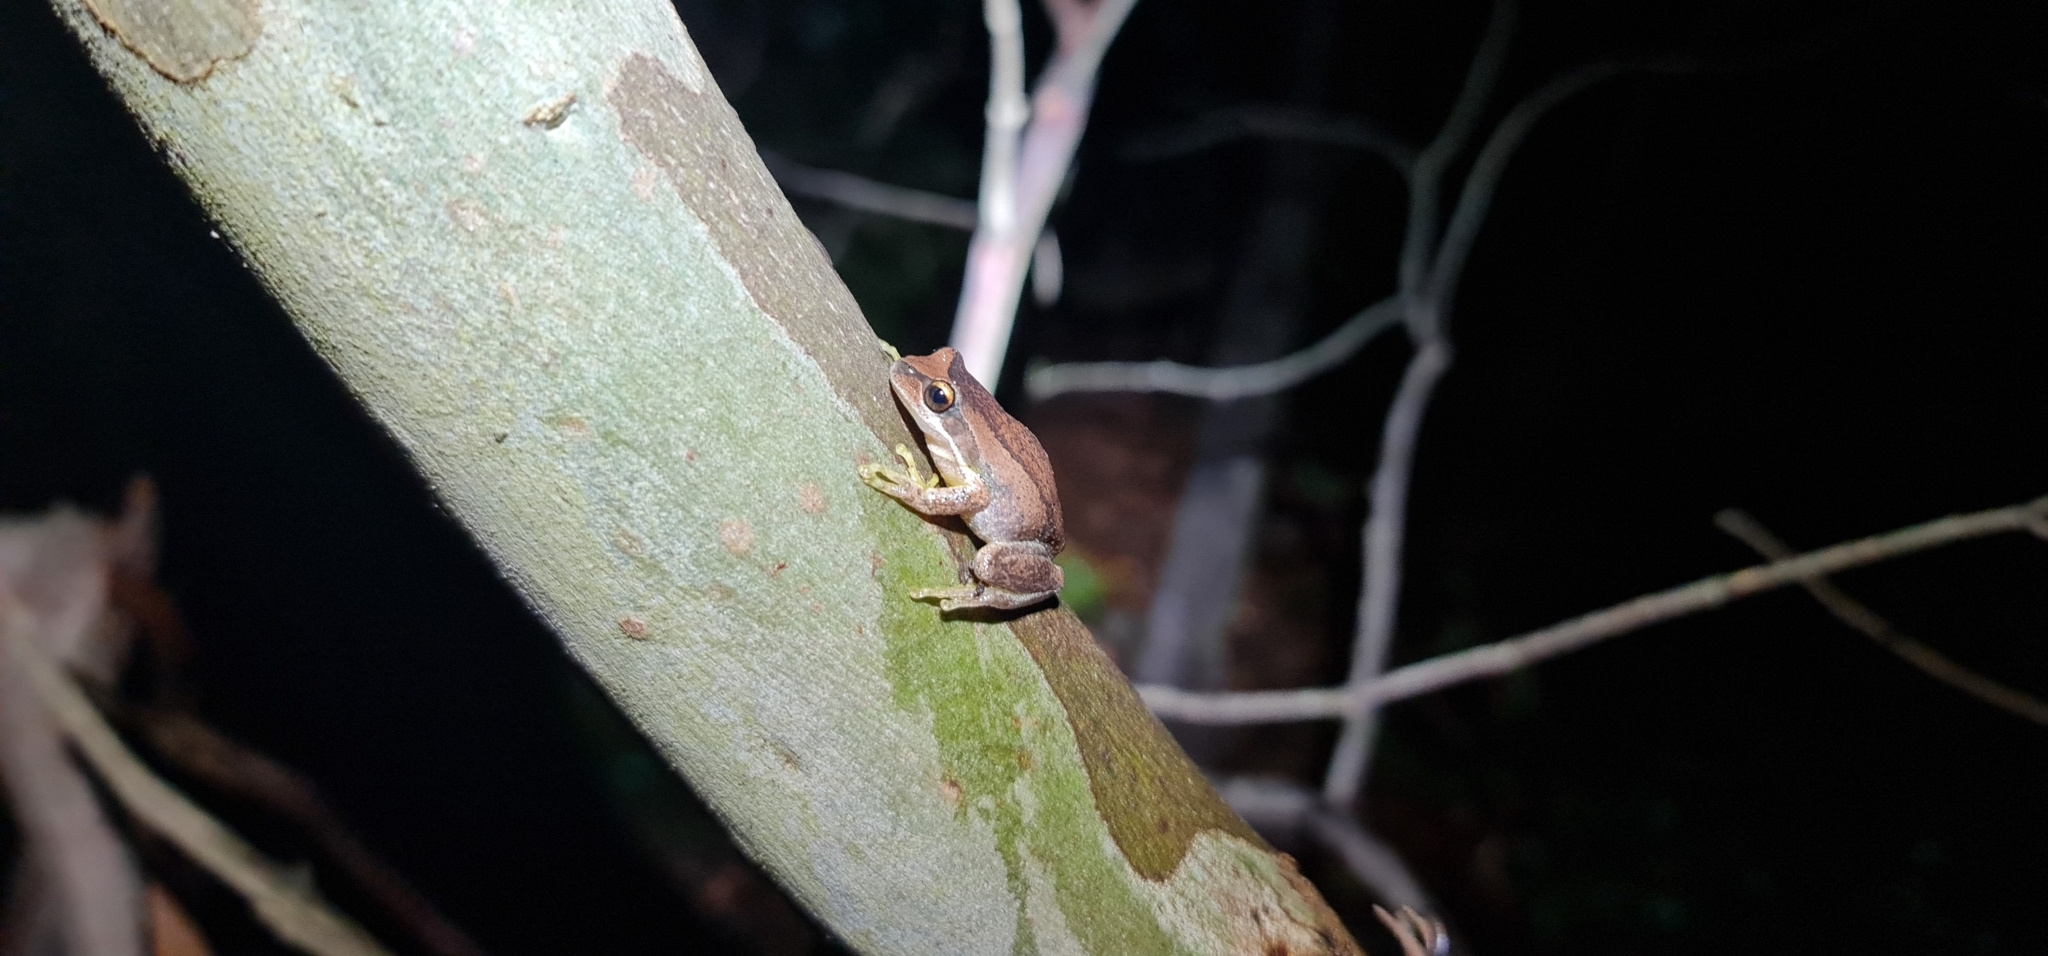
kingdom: Animalia
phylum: Chordata
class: Amphibia
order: Anura
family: Pelodryadidae
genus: Litoria
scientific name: Litoria
